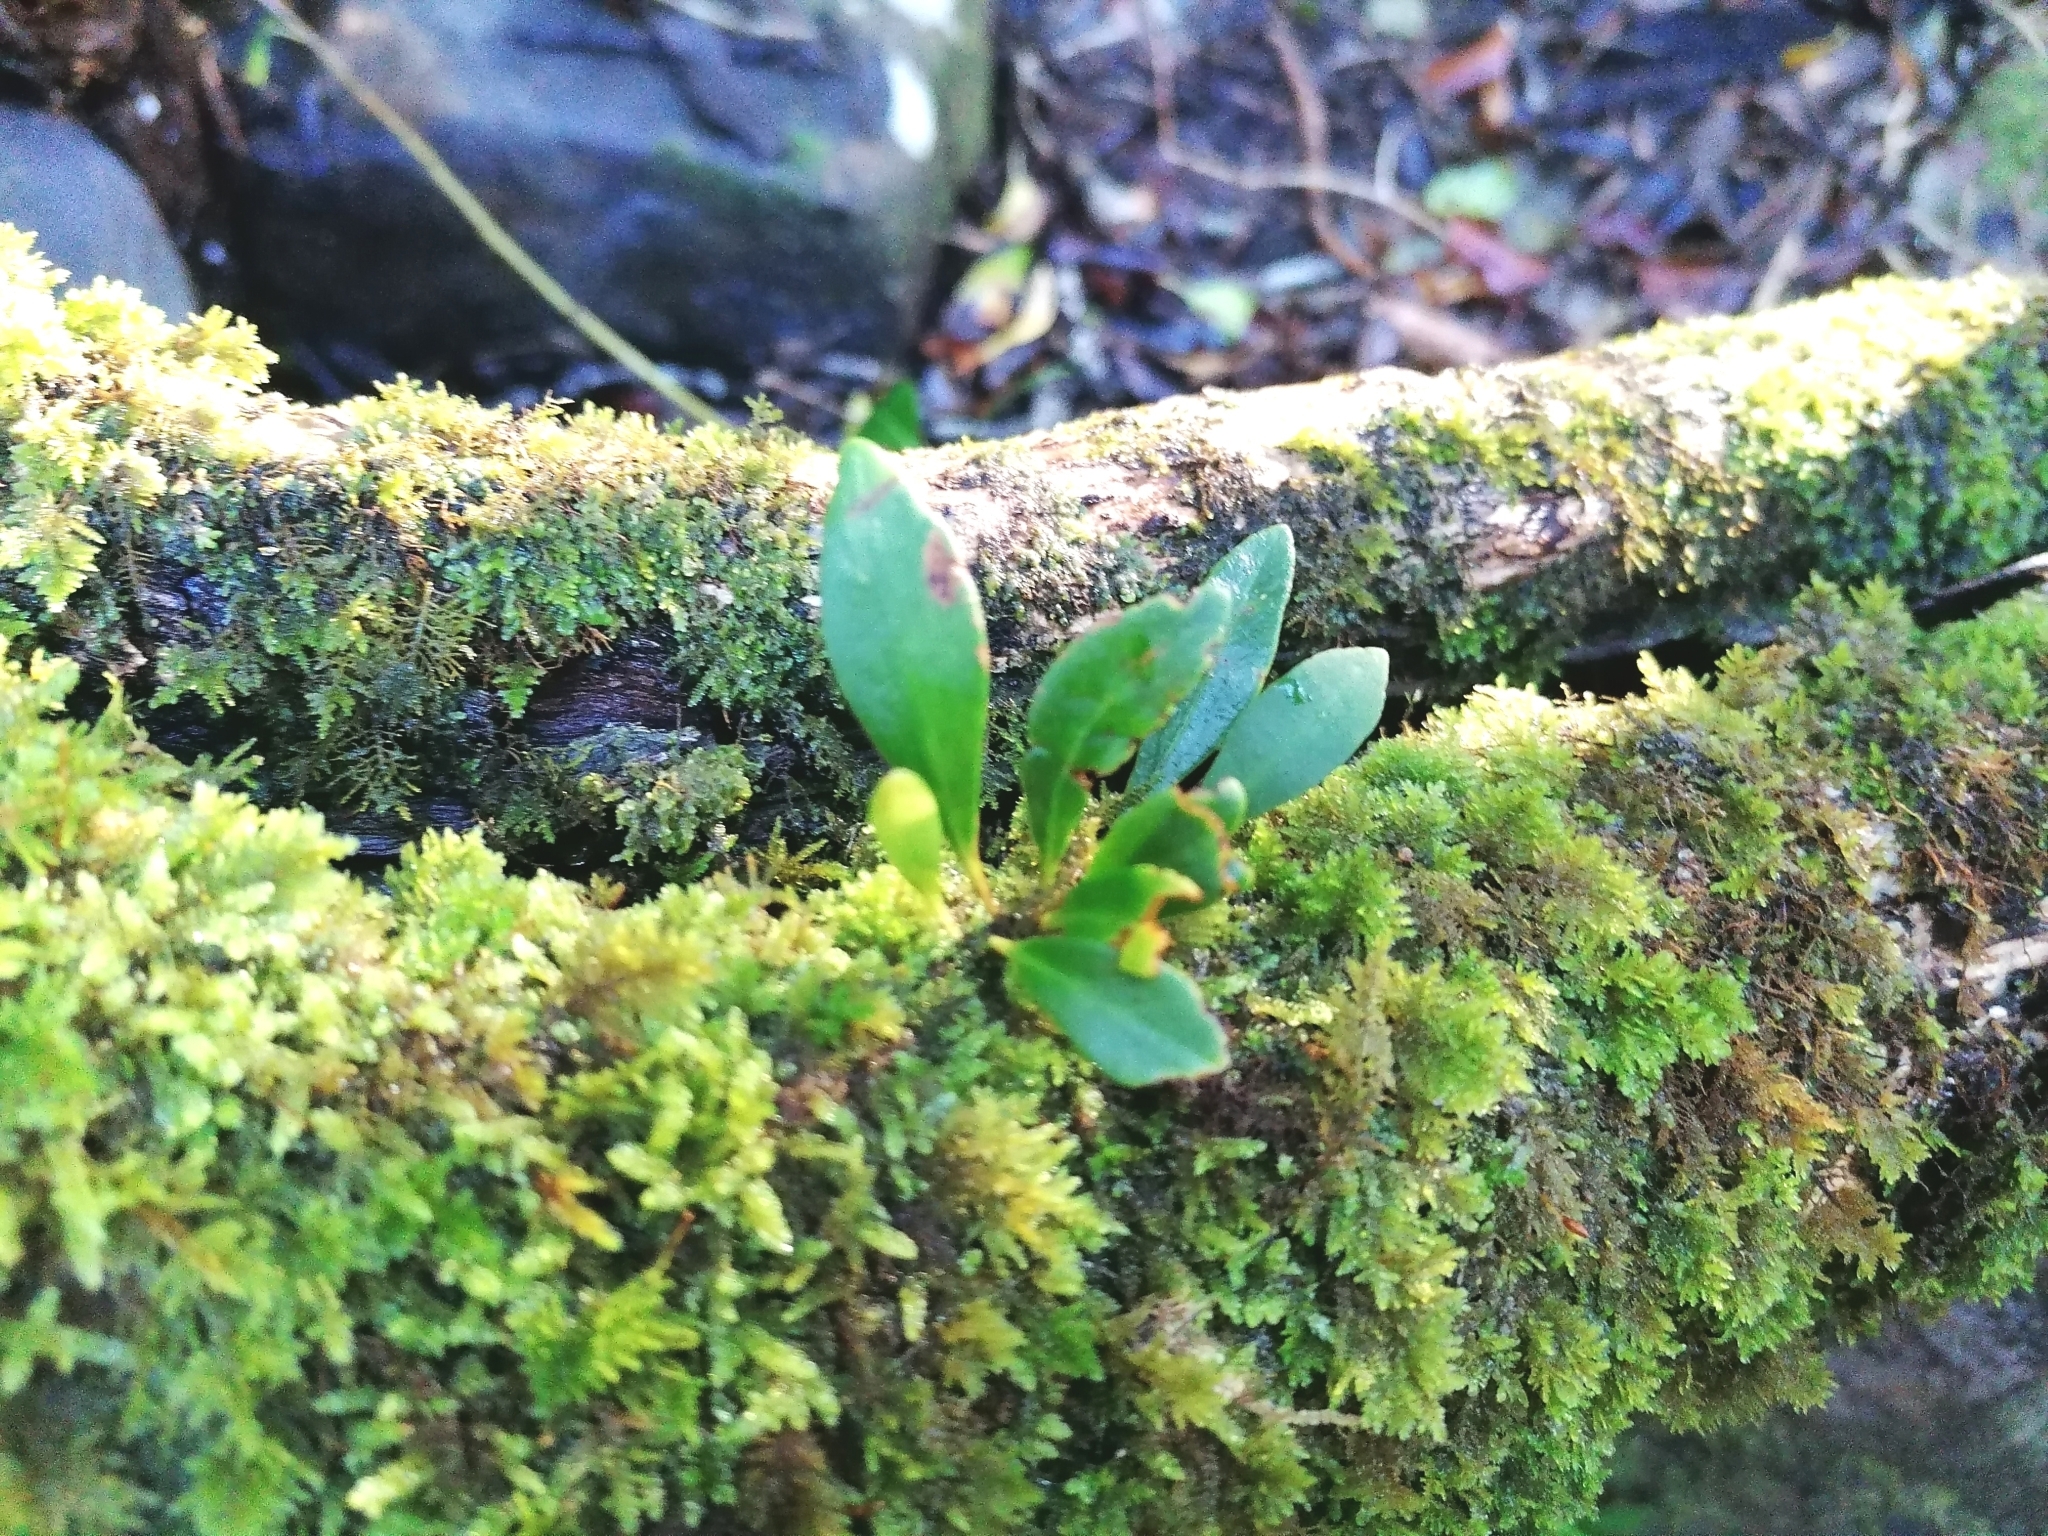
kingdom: Plantae
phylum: Tracheophyta
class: Polypodiopsida
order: Polypodiales
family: Polypodiaceae
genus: Pleopeltis
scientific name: Pleopeltis macrocarpa
